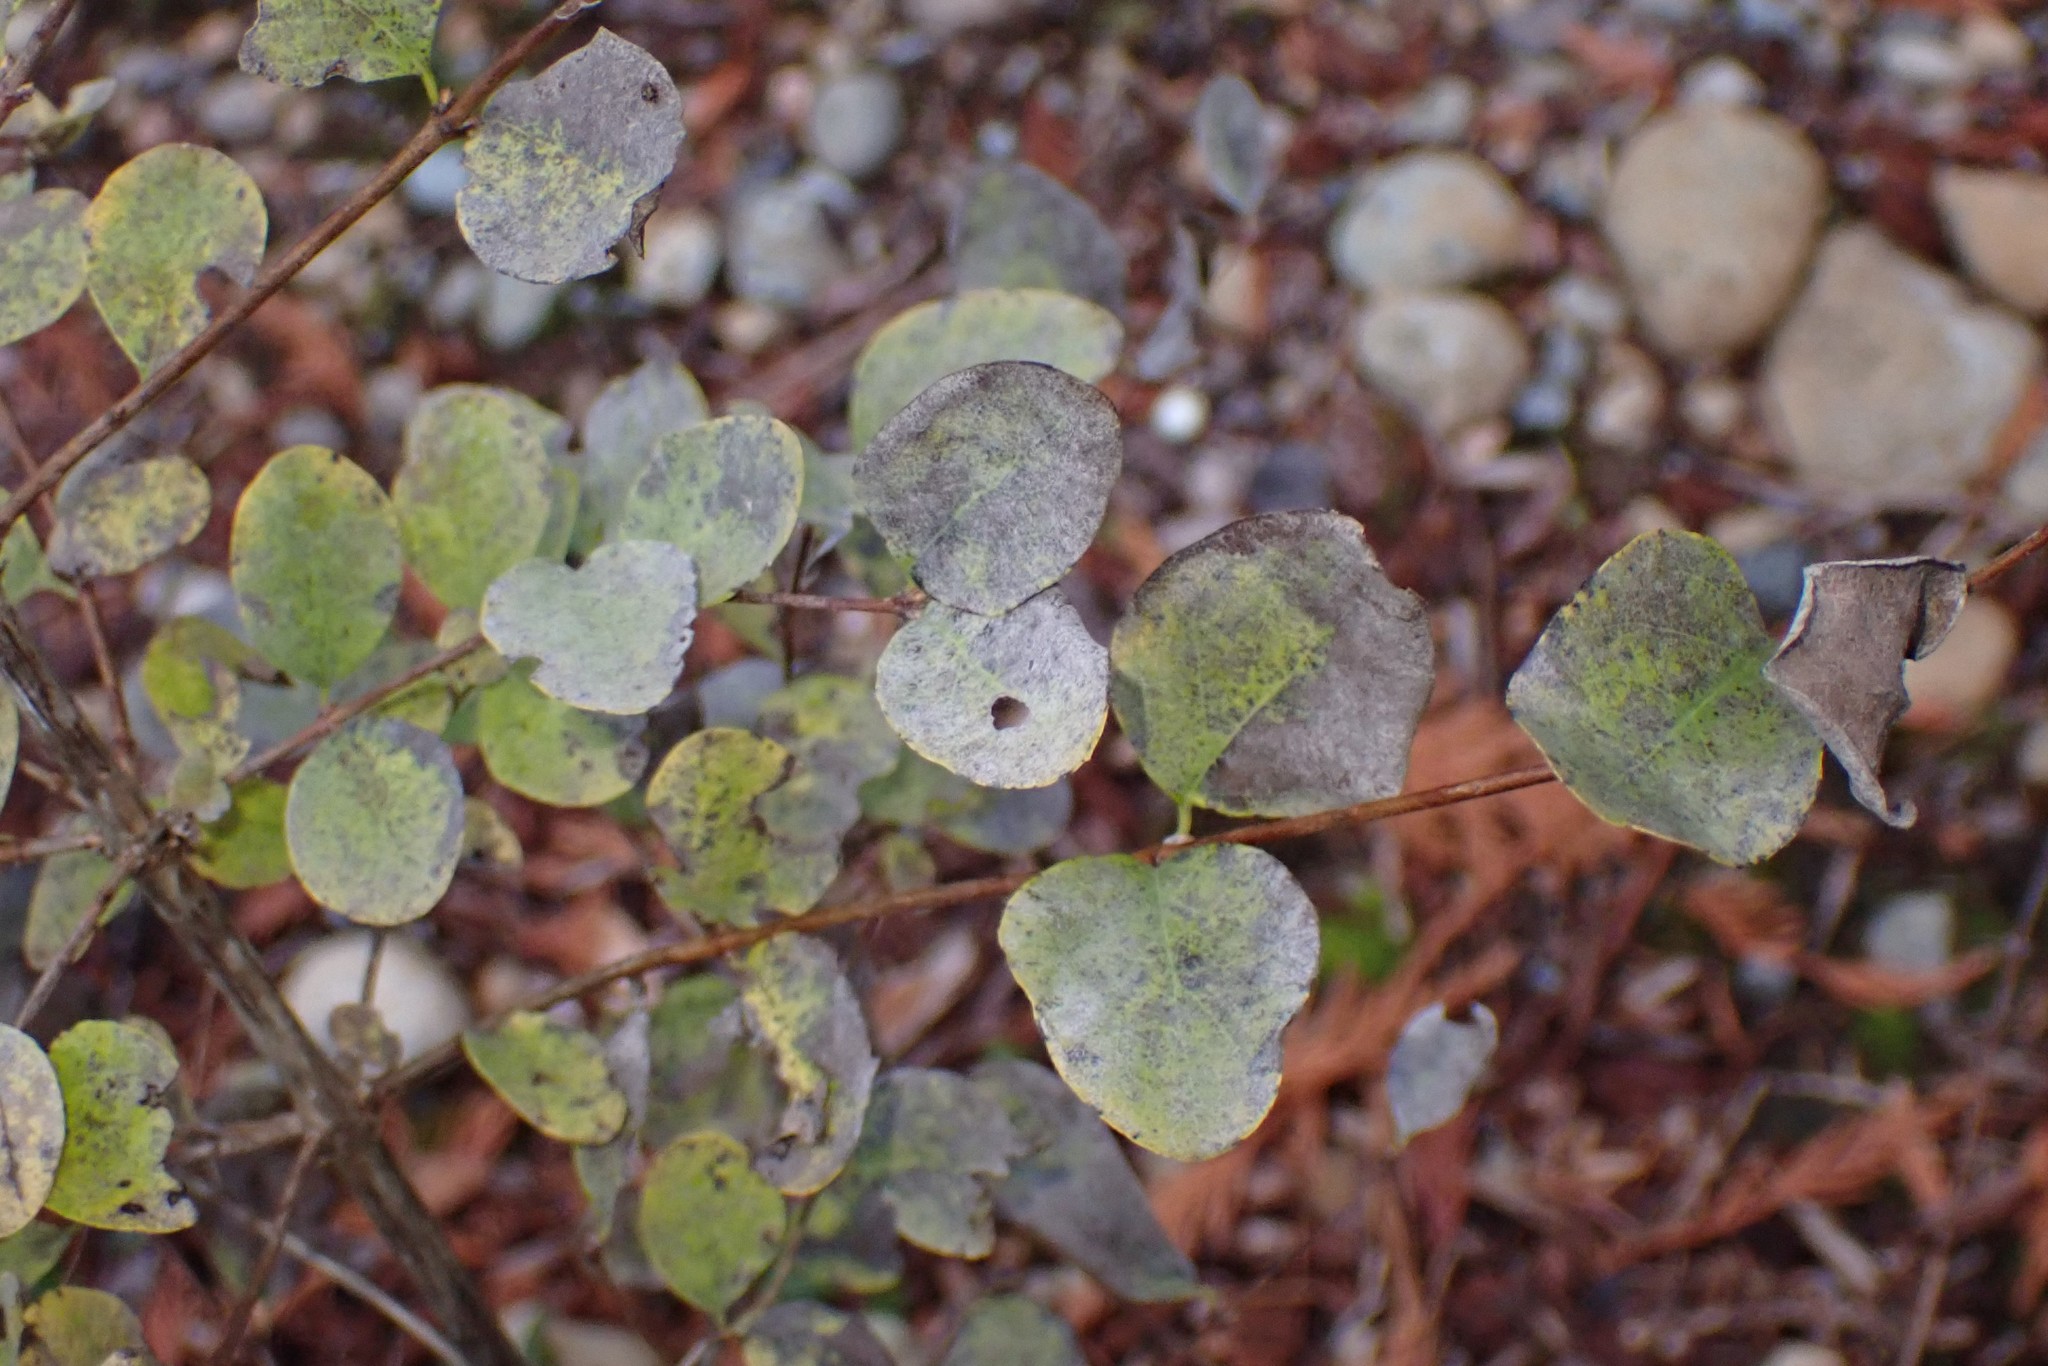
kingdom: Fungi
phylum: Ascomycota
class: Leotiomycetes
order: Helotiales
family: Erysiphaceae
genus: Erysiphe
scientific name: Erysiphe symphoricarpi
